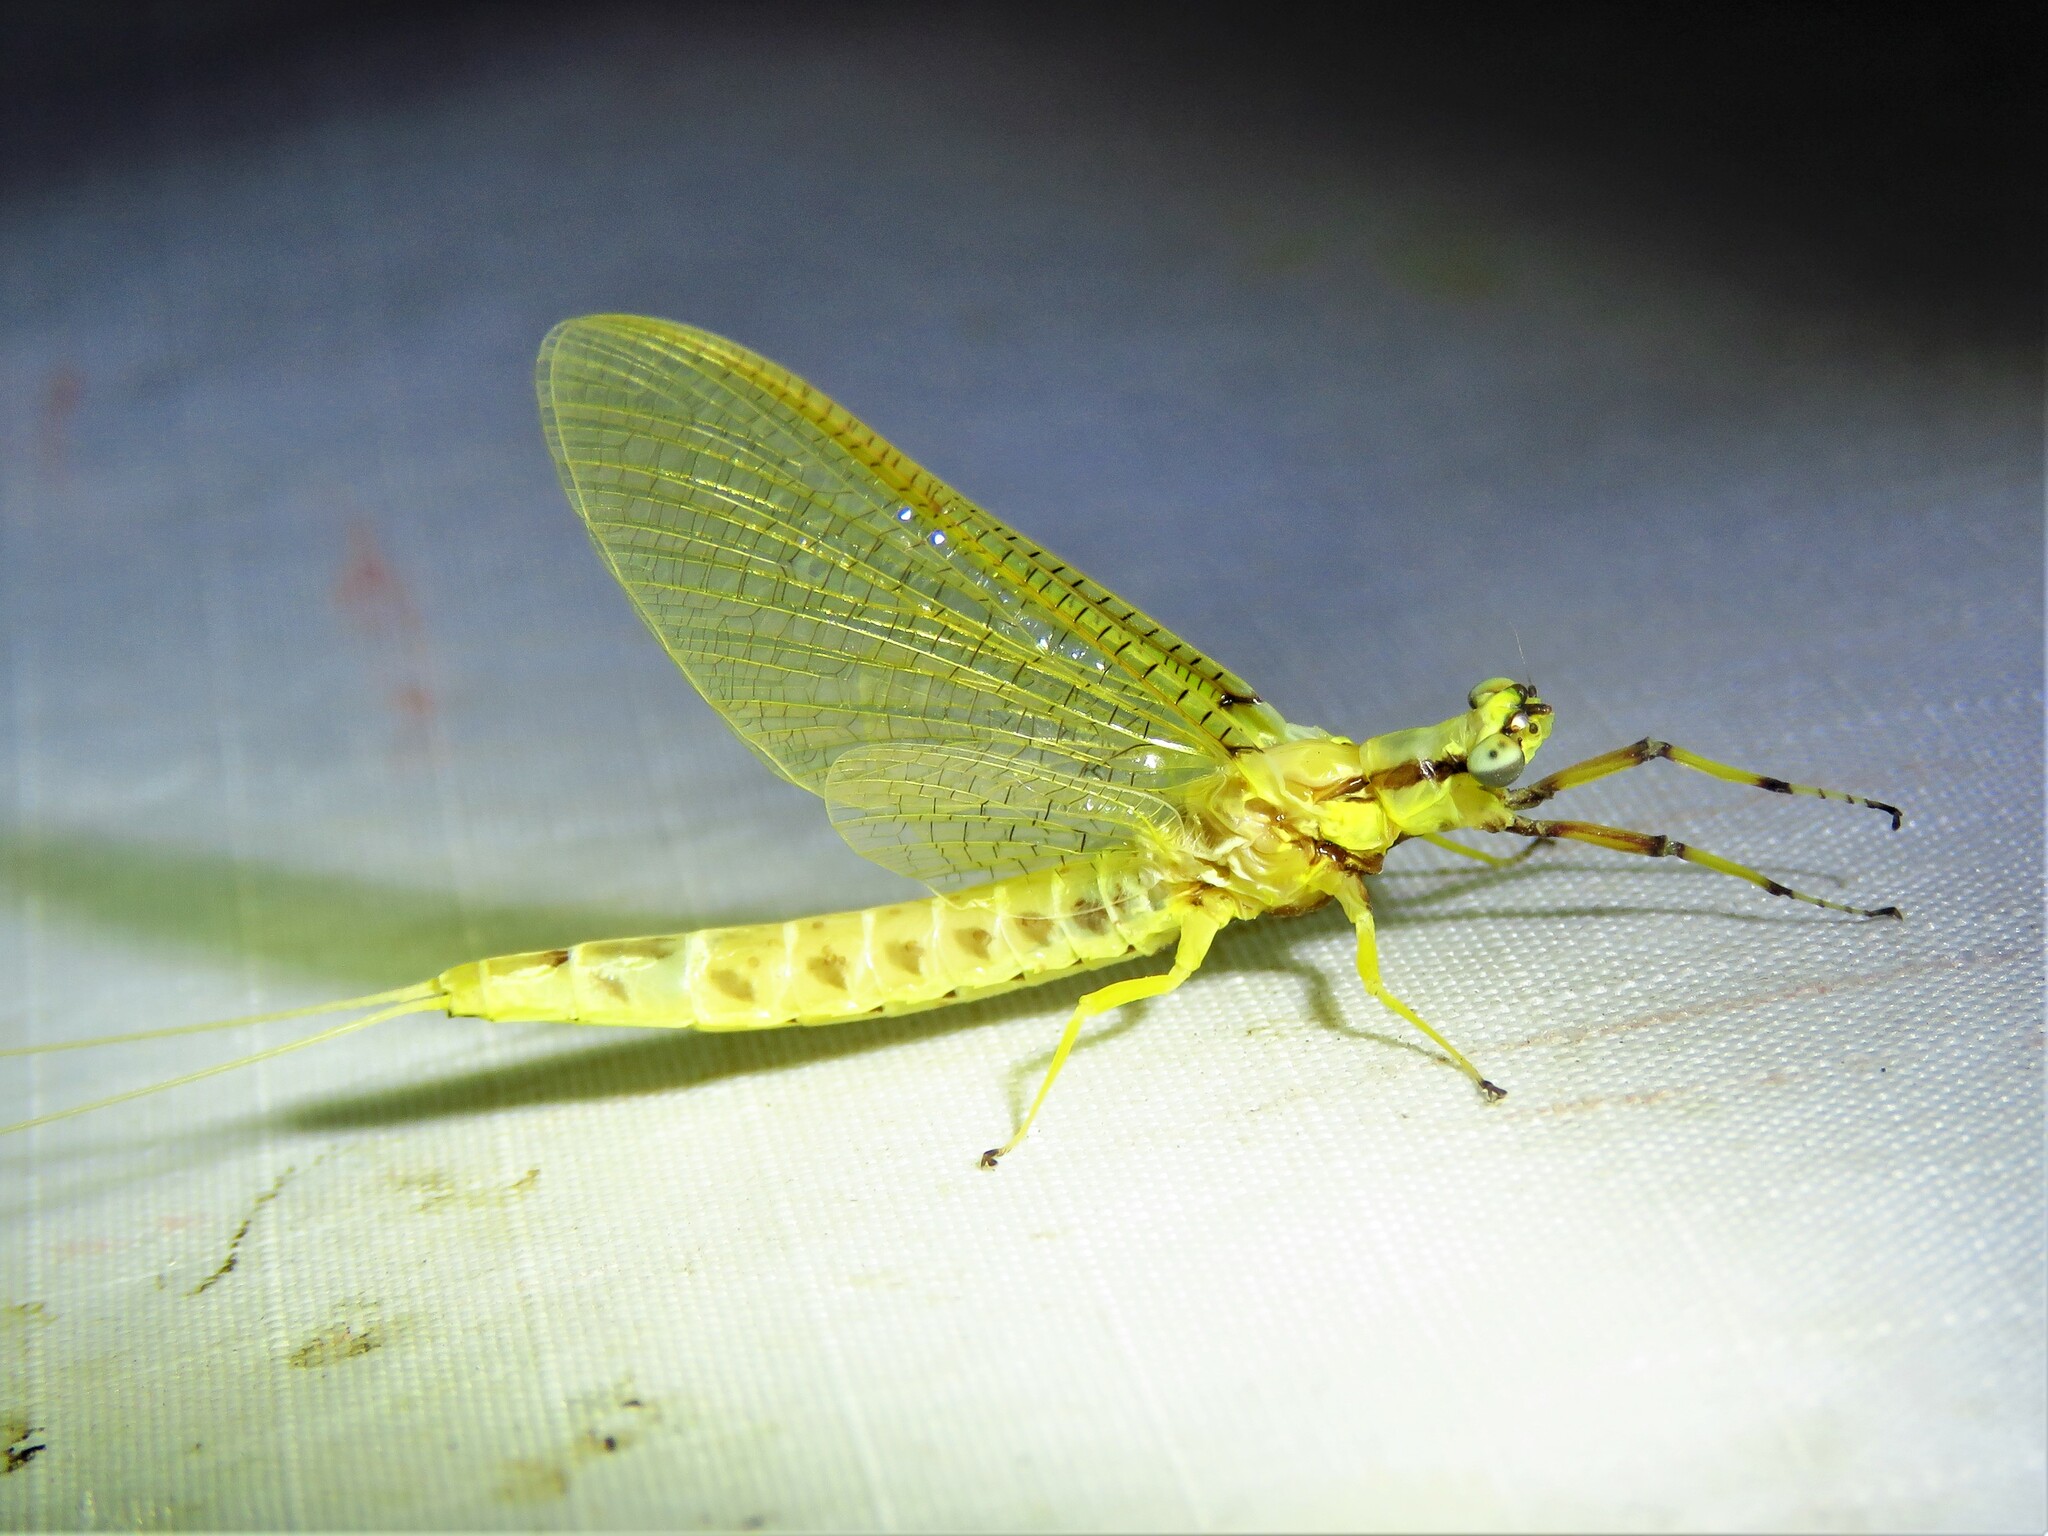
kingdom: Animalia
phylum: Arthropoda
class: Insecta
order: Ephemeroptera
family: Ephemeridae
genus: Hexagenia
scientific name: Hexagenia limbata
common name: Giant mayfly
